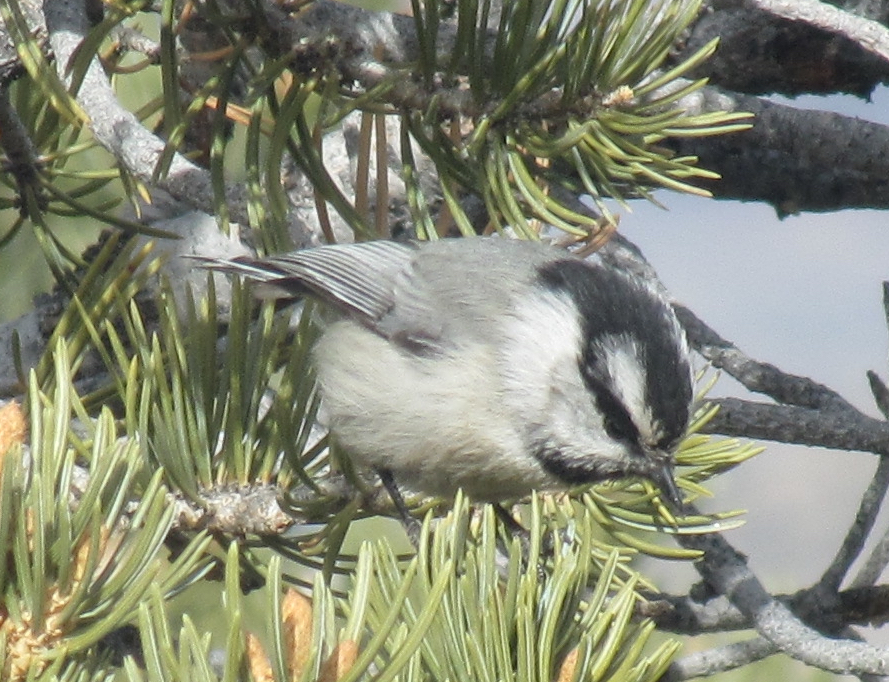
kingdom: Animalia
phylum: Chordata
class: Aves
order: Passeriformes
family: Paridae
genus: Poecile
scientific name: Poecile gambeli
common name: Mountain chickadee
